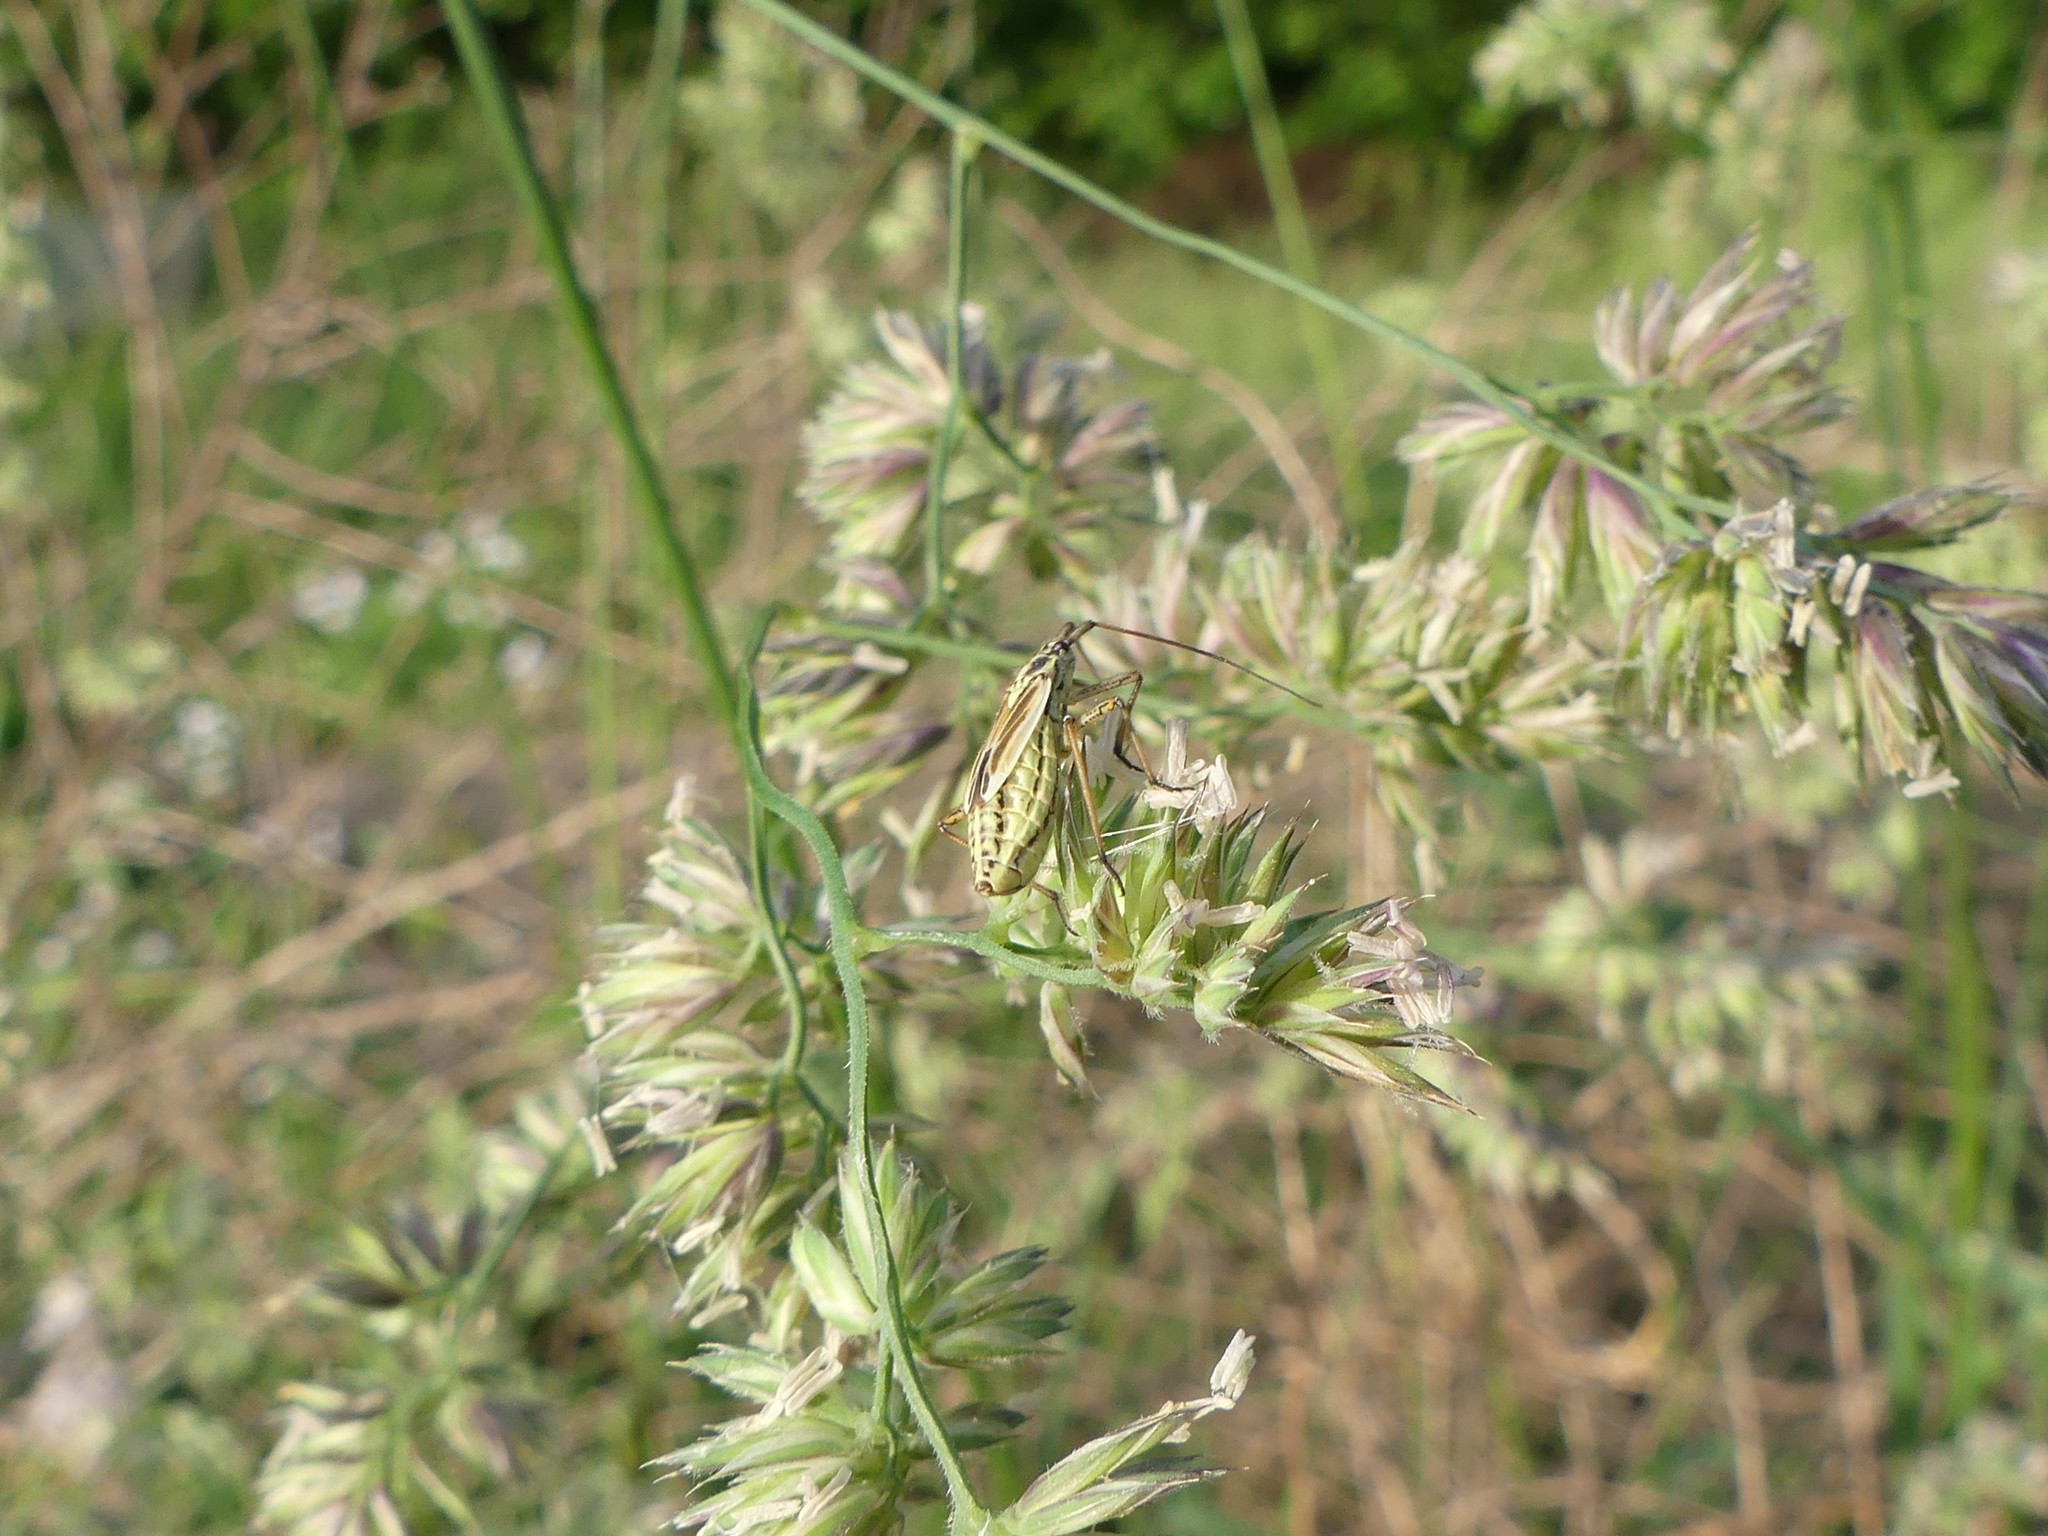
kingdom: Animalia
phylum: Arthropoda
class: Insecta
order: Hemiptera
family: Miridae
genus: Leptopterna
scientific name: Leptopterna dolabrata
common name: Meadow plant bug
